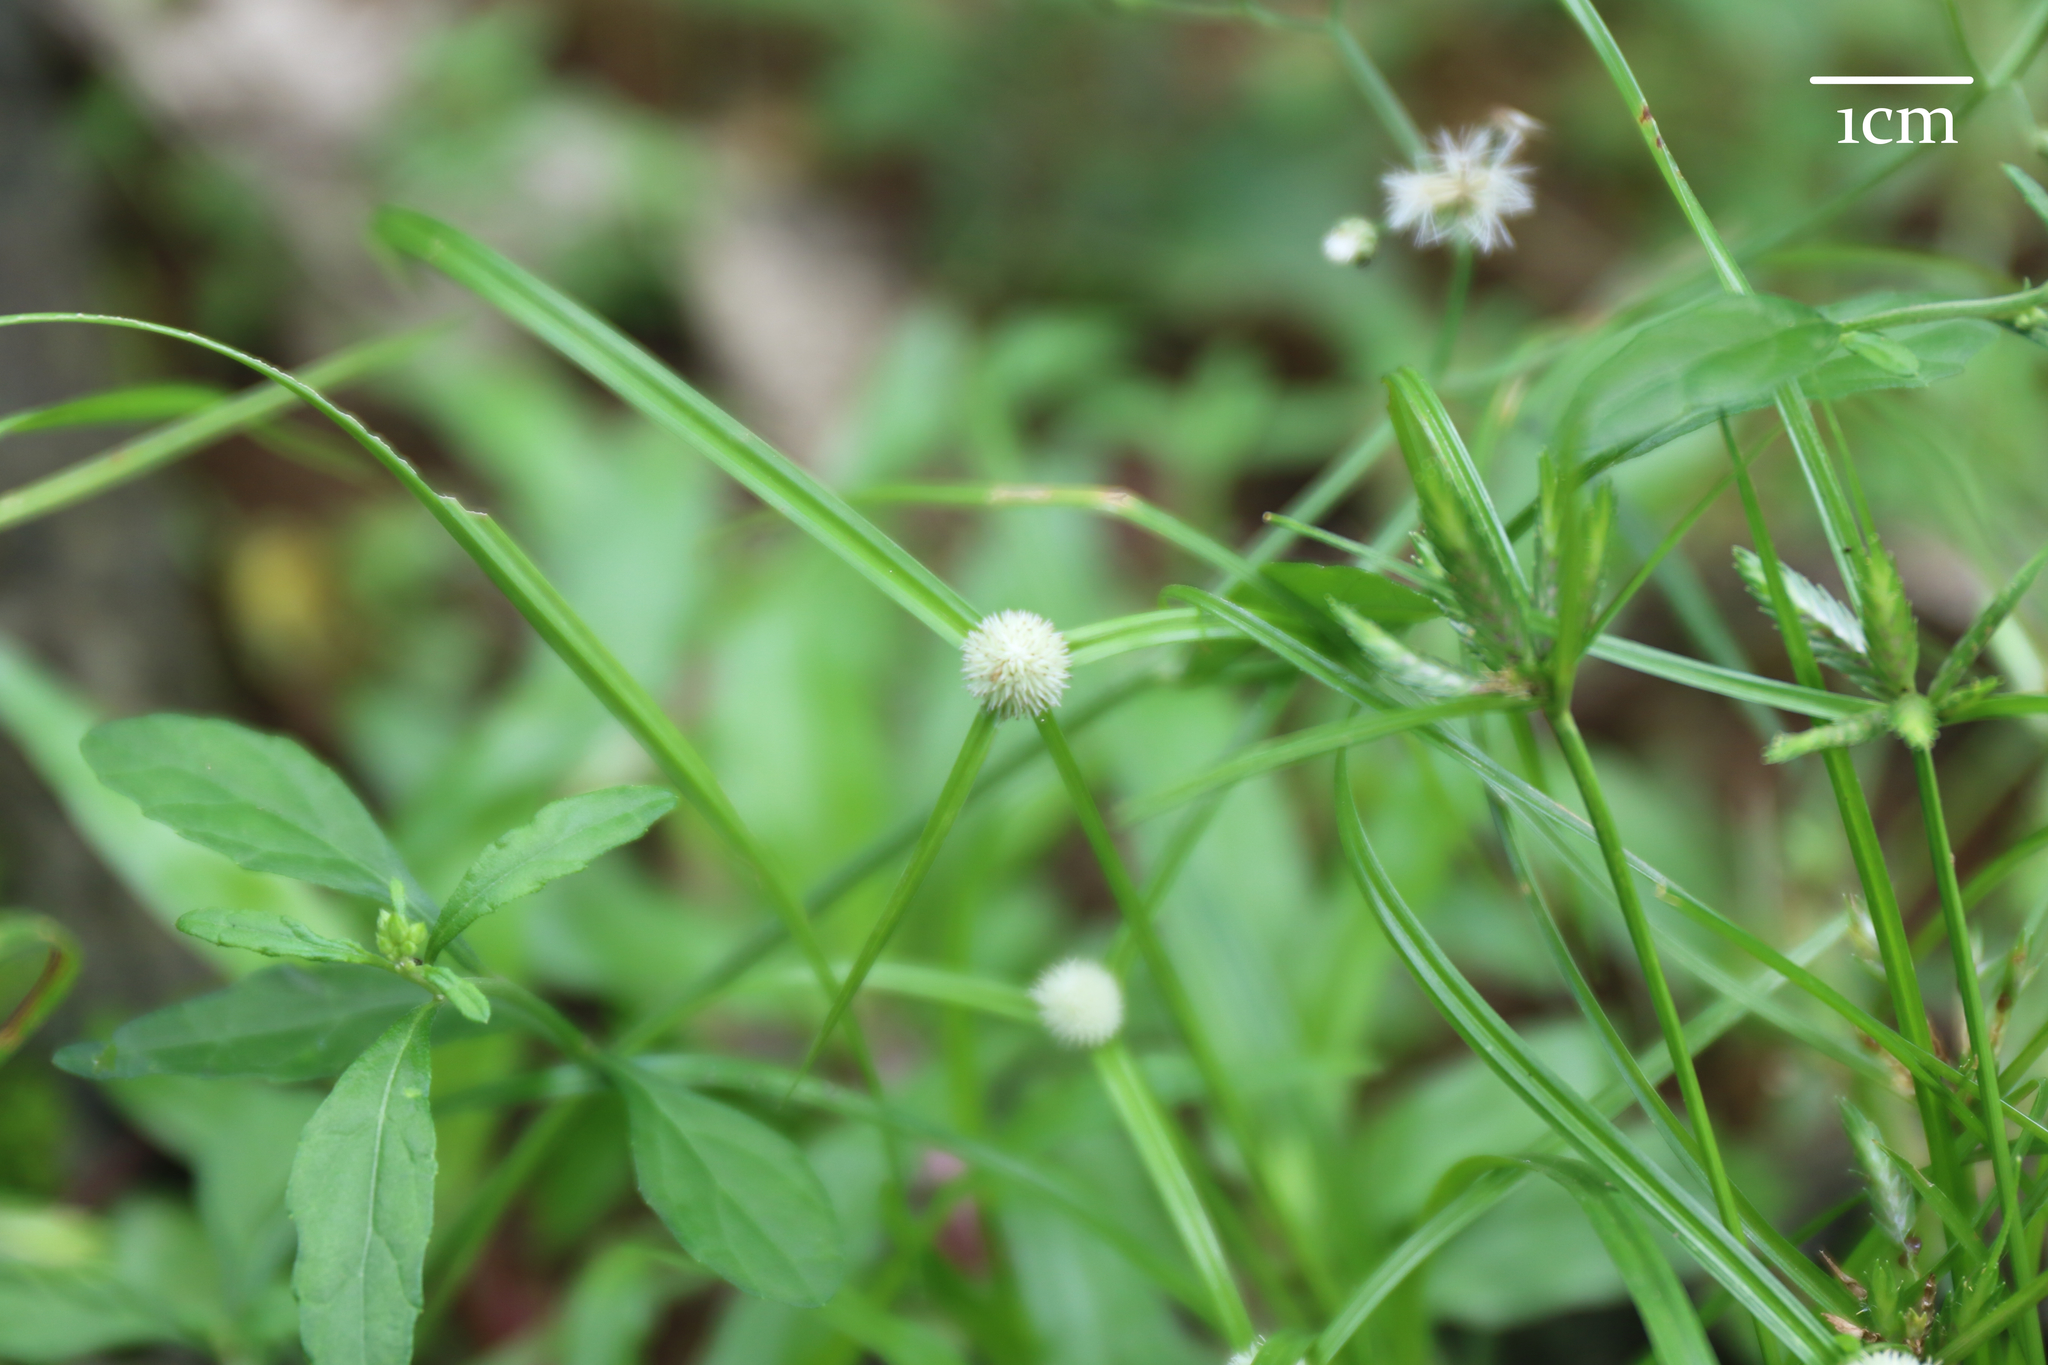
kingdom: Plantae
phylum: Tracheophyta
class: Liliopsida
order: Poales
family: Cyperaceae
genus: Cyperus
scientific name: Cyperus mindorensis
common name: Flatsedge
